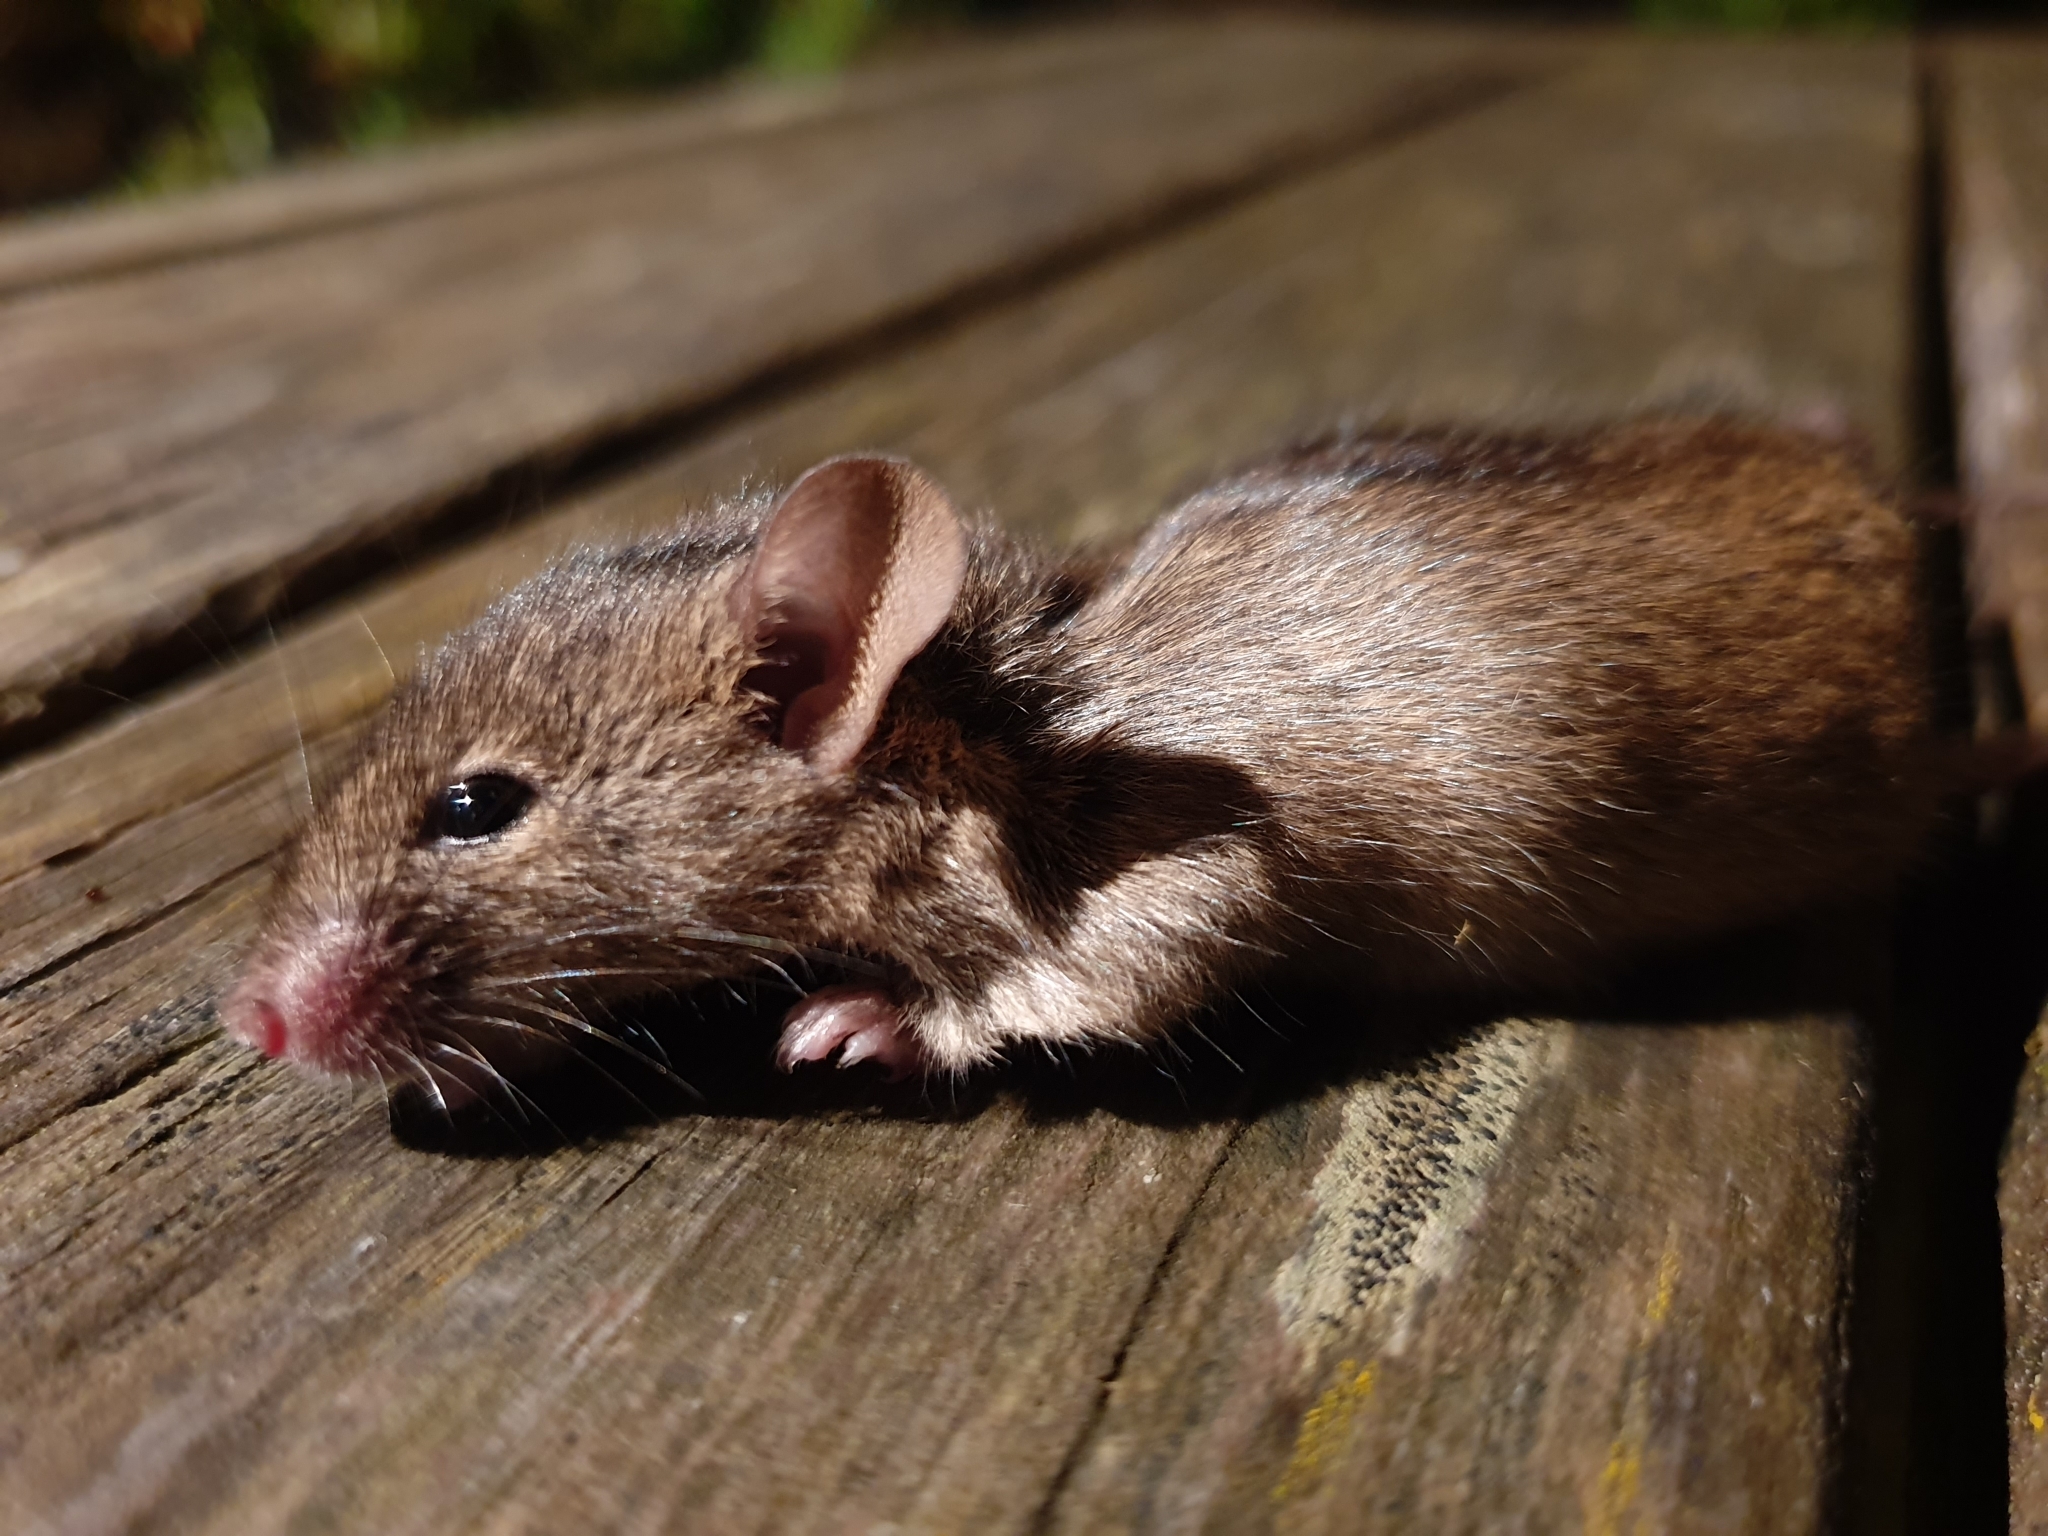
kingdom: Animalia
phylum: Chordata
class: Mammalia
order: Rodentia
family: Muridae
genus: Mus
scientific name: Mus musculus
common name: House mouse
